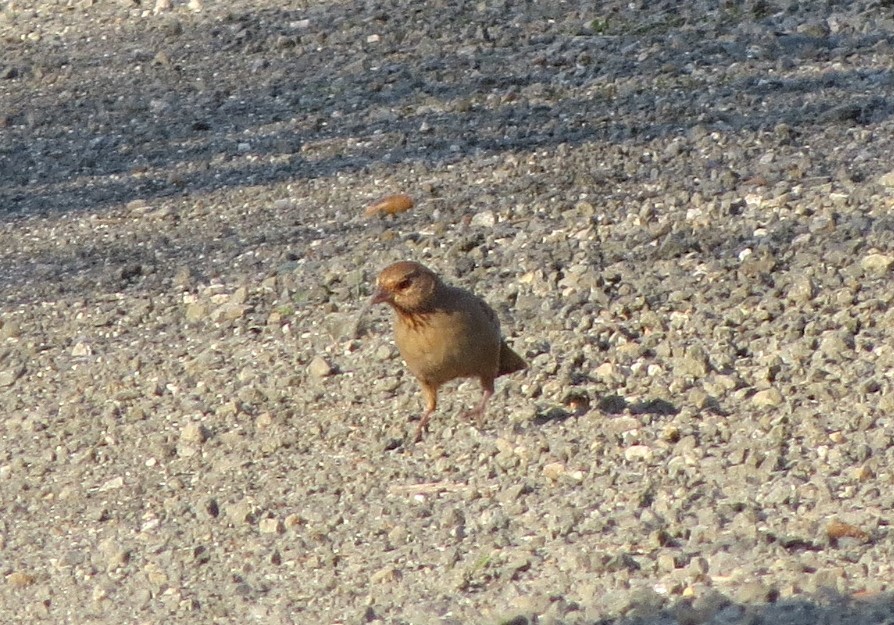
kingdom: Animalia
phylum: Chordata
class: Aves
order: Passeriformes
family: Passerellidae
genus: Melozone
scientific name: Melozone crissalis
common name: California towhee
